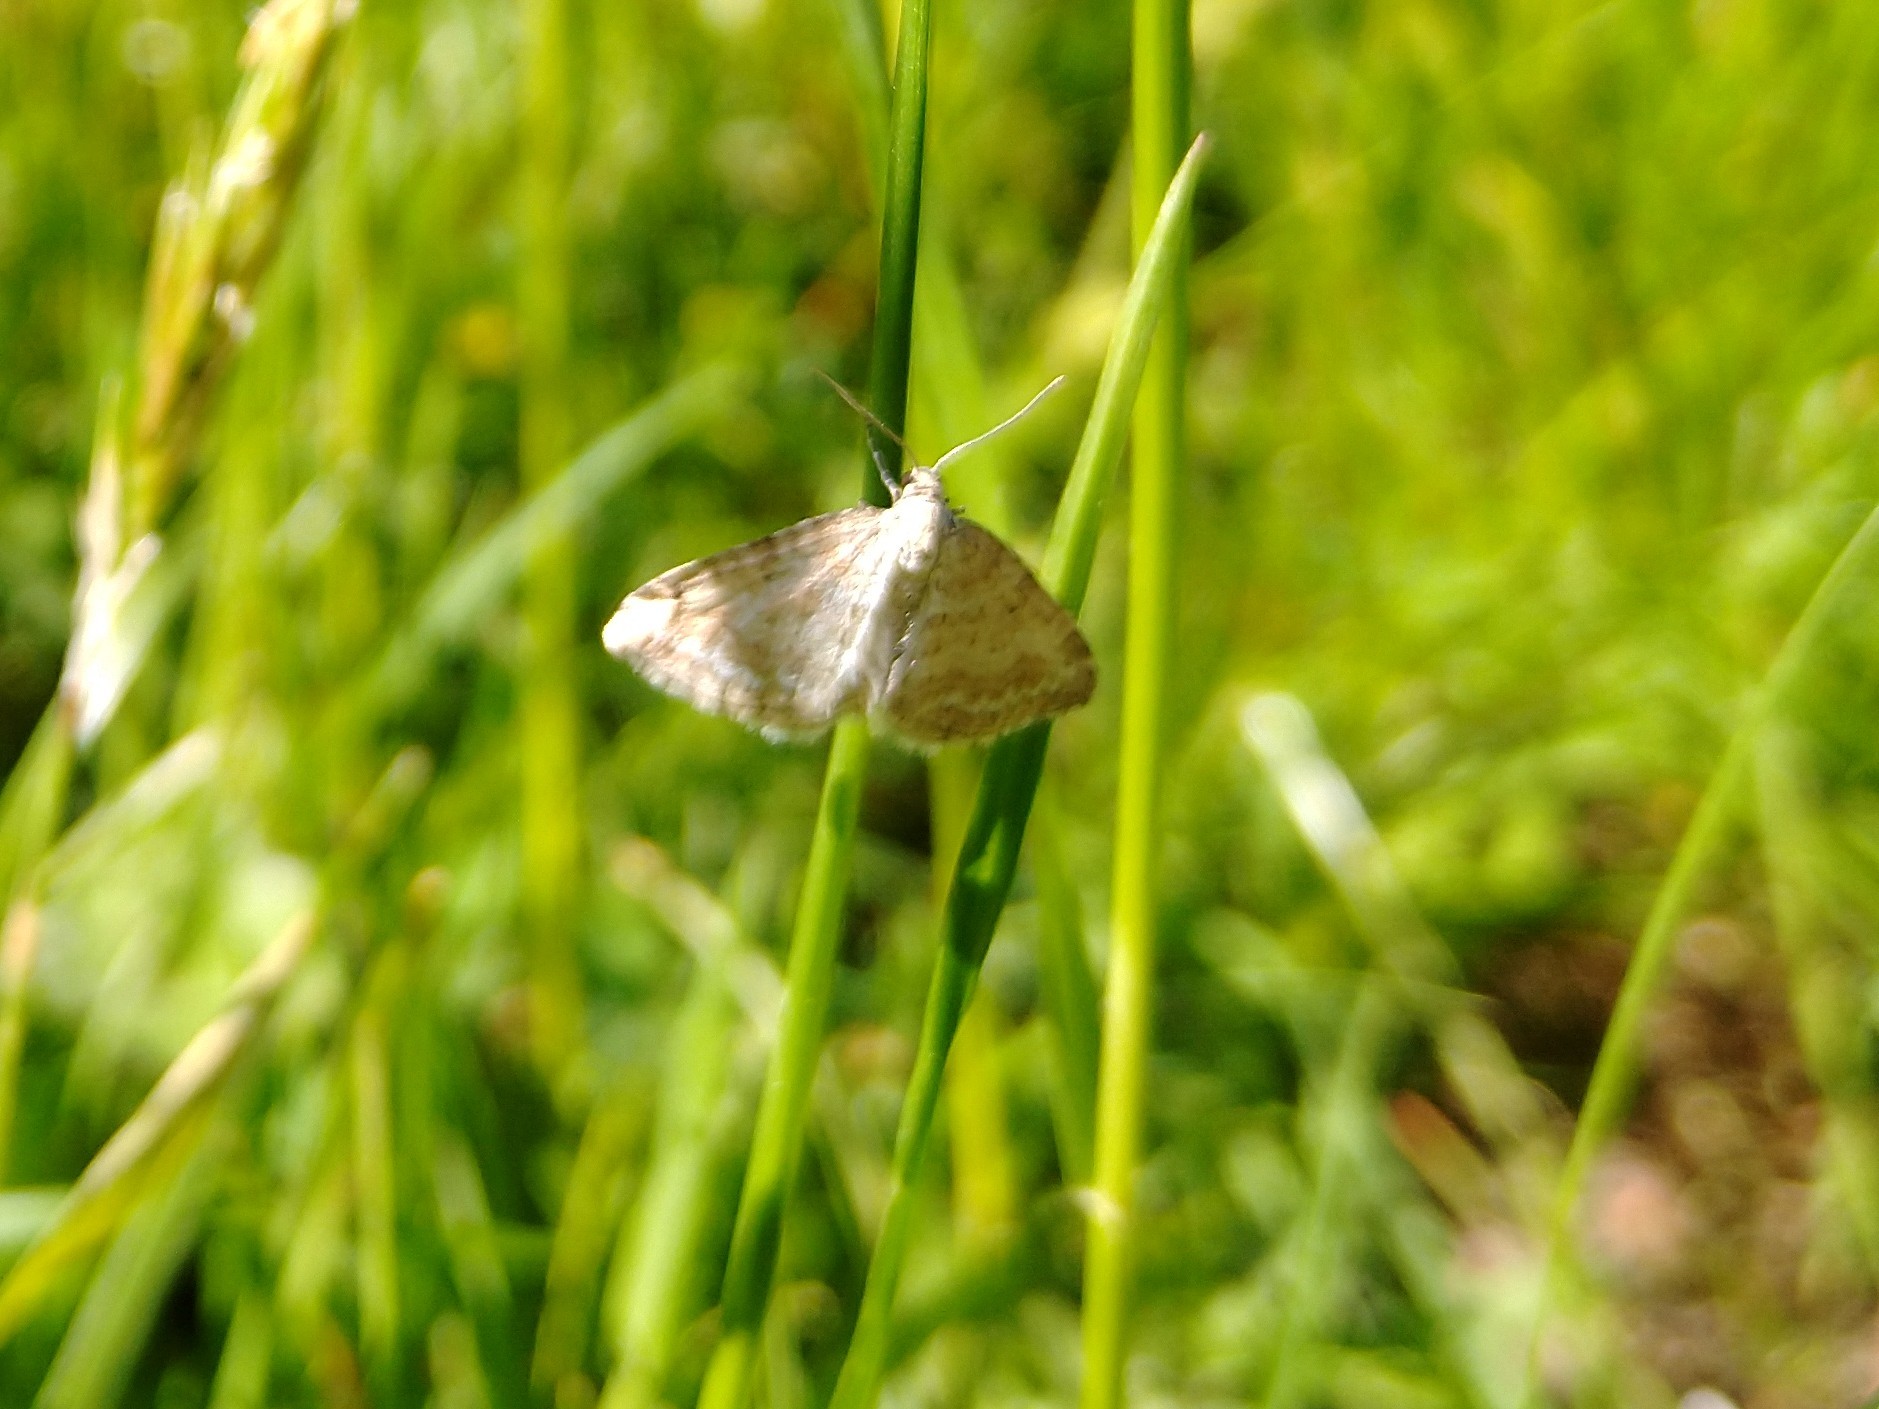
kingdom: Animalia
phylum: Arthropoda
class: Insecta
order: Lepidoptera
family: Geometridae
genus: Perizoma
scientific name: Perizoma albulata
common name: Grass rivulet
